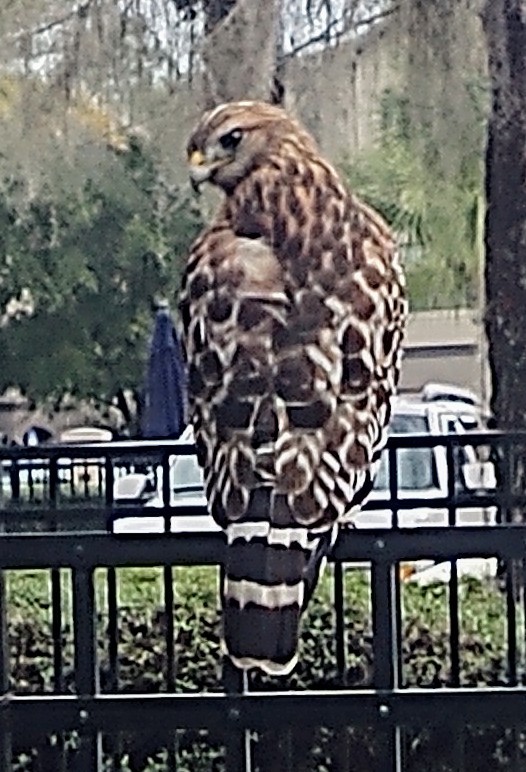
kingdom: Animalia
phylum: Chordata
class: Aves
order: Accipitriformes
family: Accipitridae
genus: Buteo
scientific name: Buteo lineatus
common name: Red-shouldered hawk
